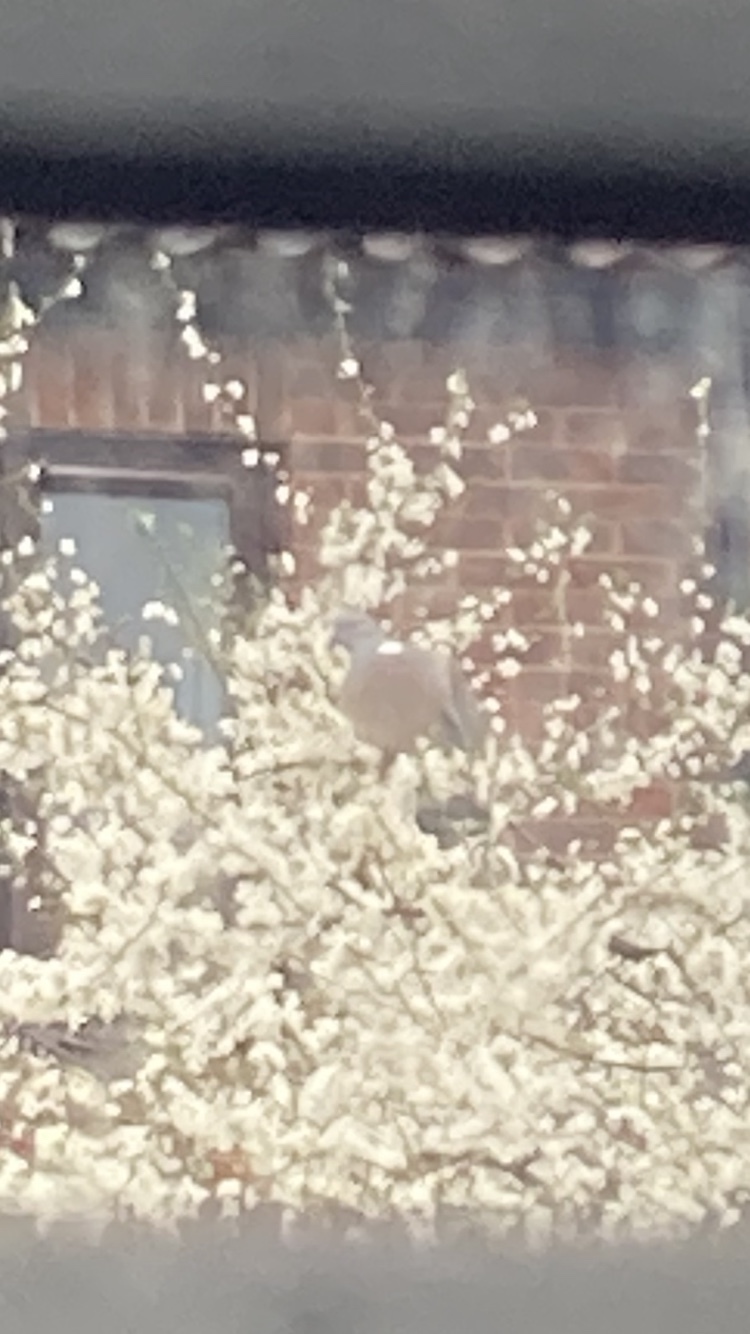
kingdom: Animalia
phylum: Chordata
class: Aves
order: Columbiformes
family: Columbidae
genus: Columba
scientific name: Columba palumbus
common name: Common wood pigeon
